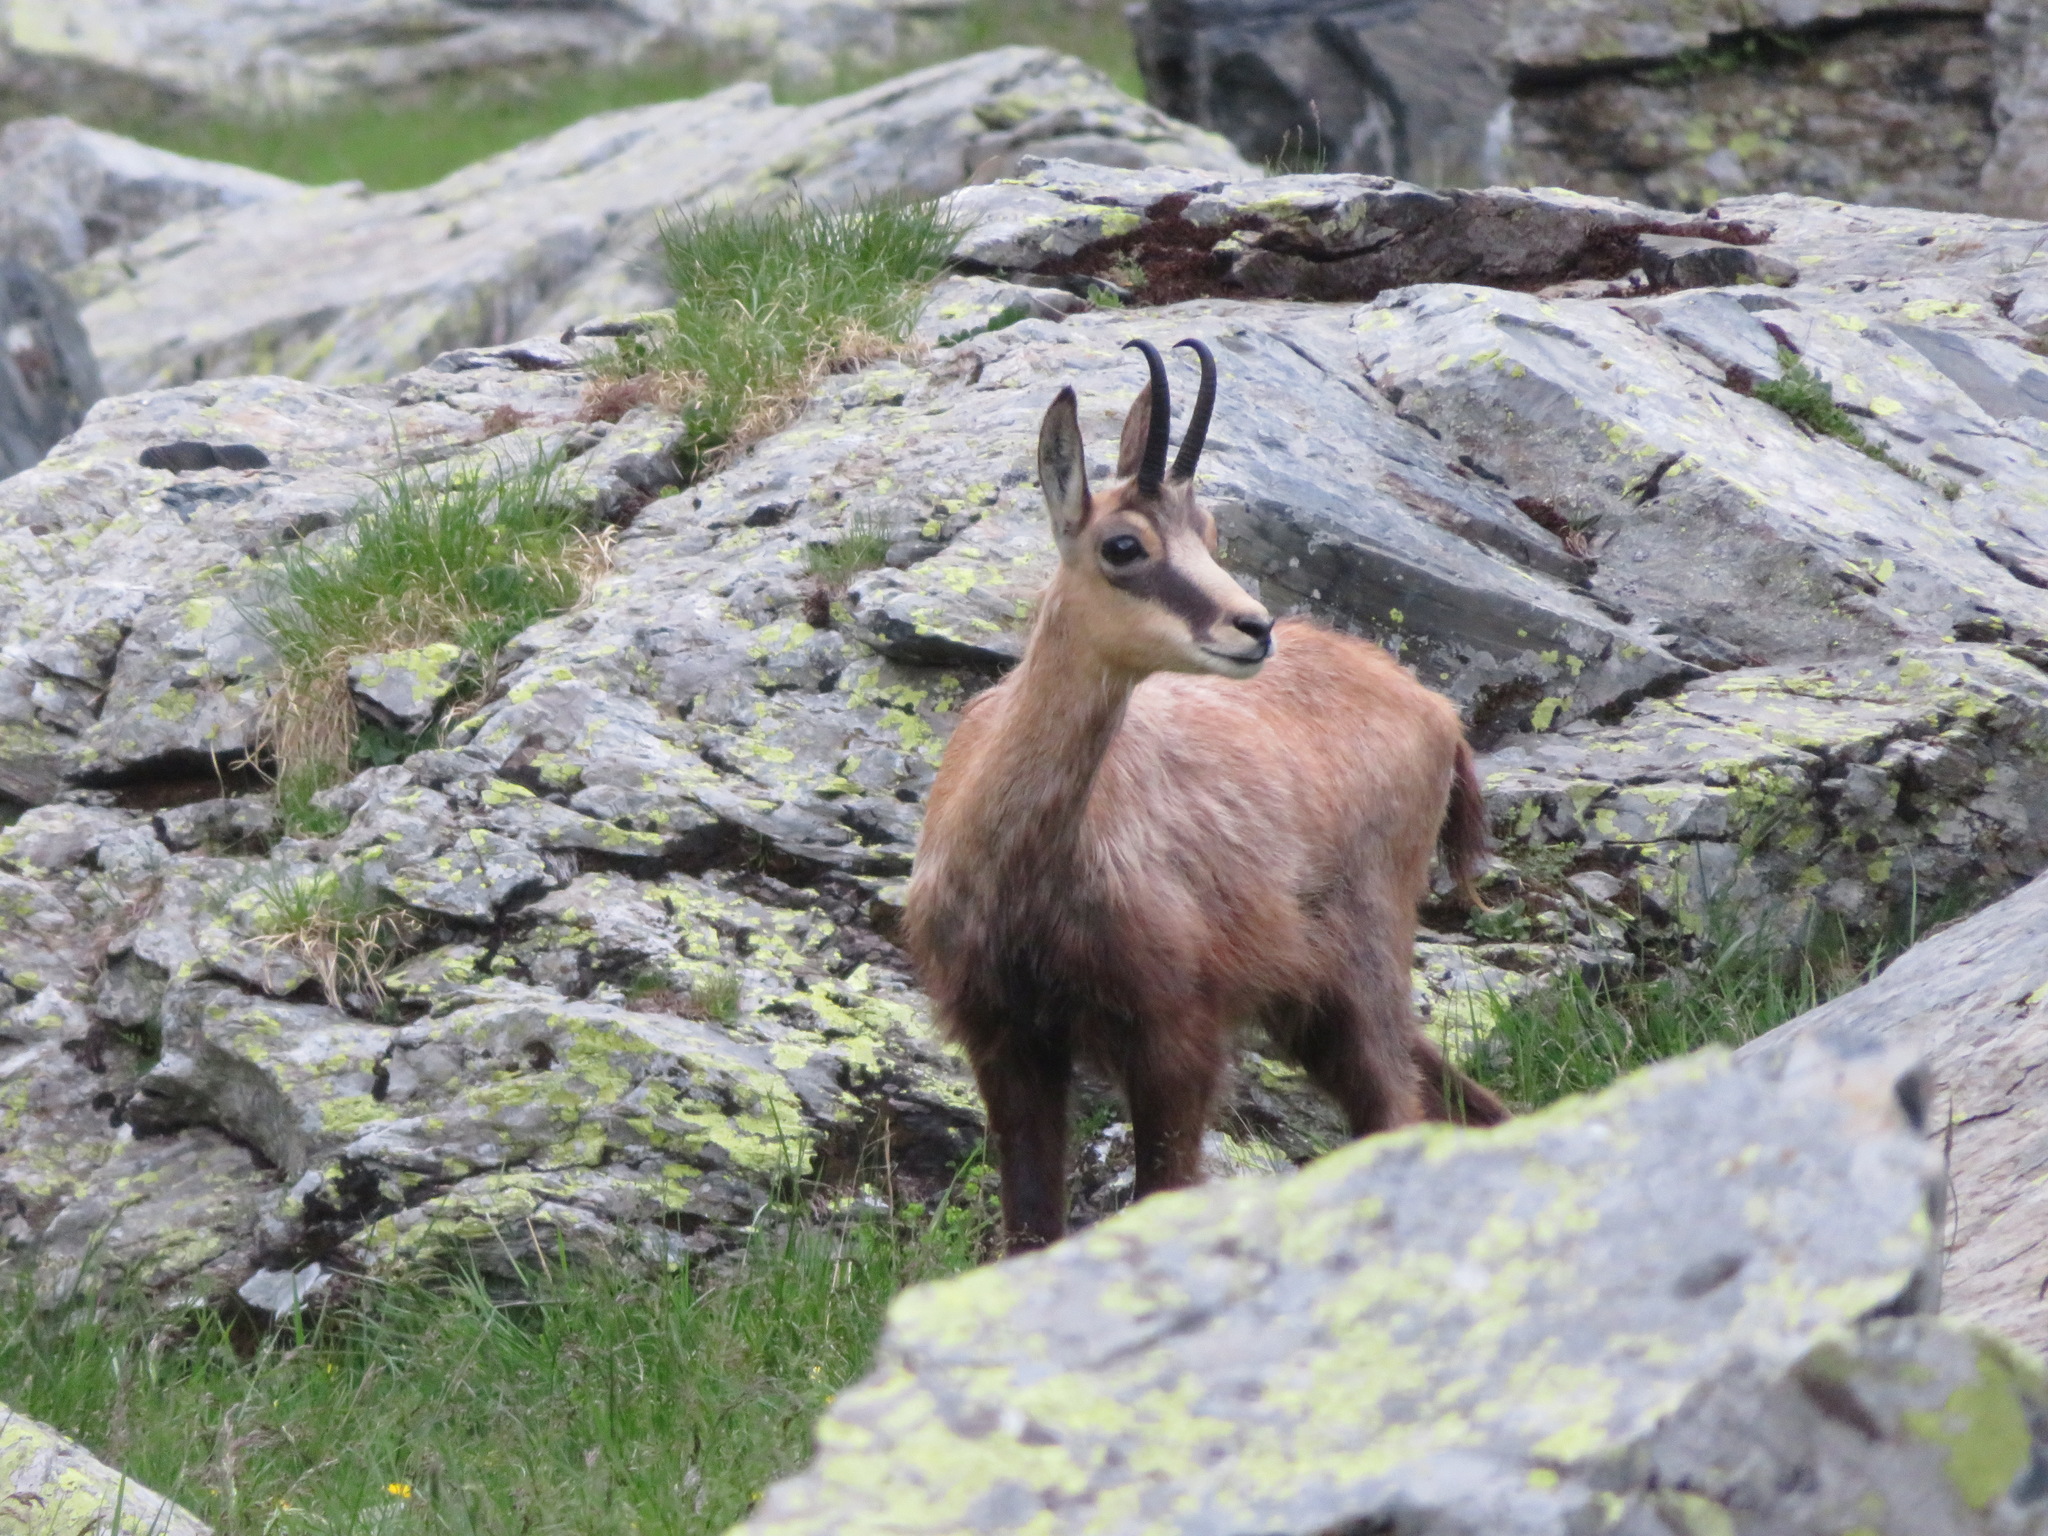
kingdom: Animalia
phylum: Chordata
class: Mammalia
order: Artiodactyla
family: Bovidae
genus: Rupicapra
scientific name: Rupicapra rupicapra
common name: Chamois
